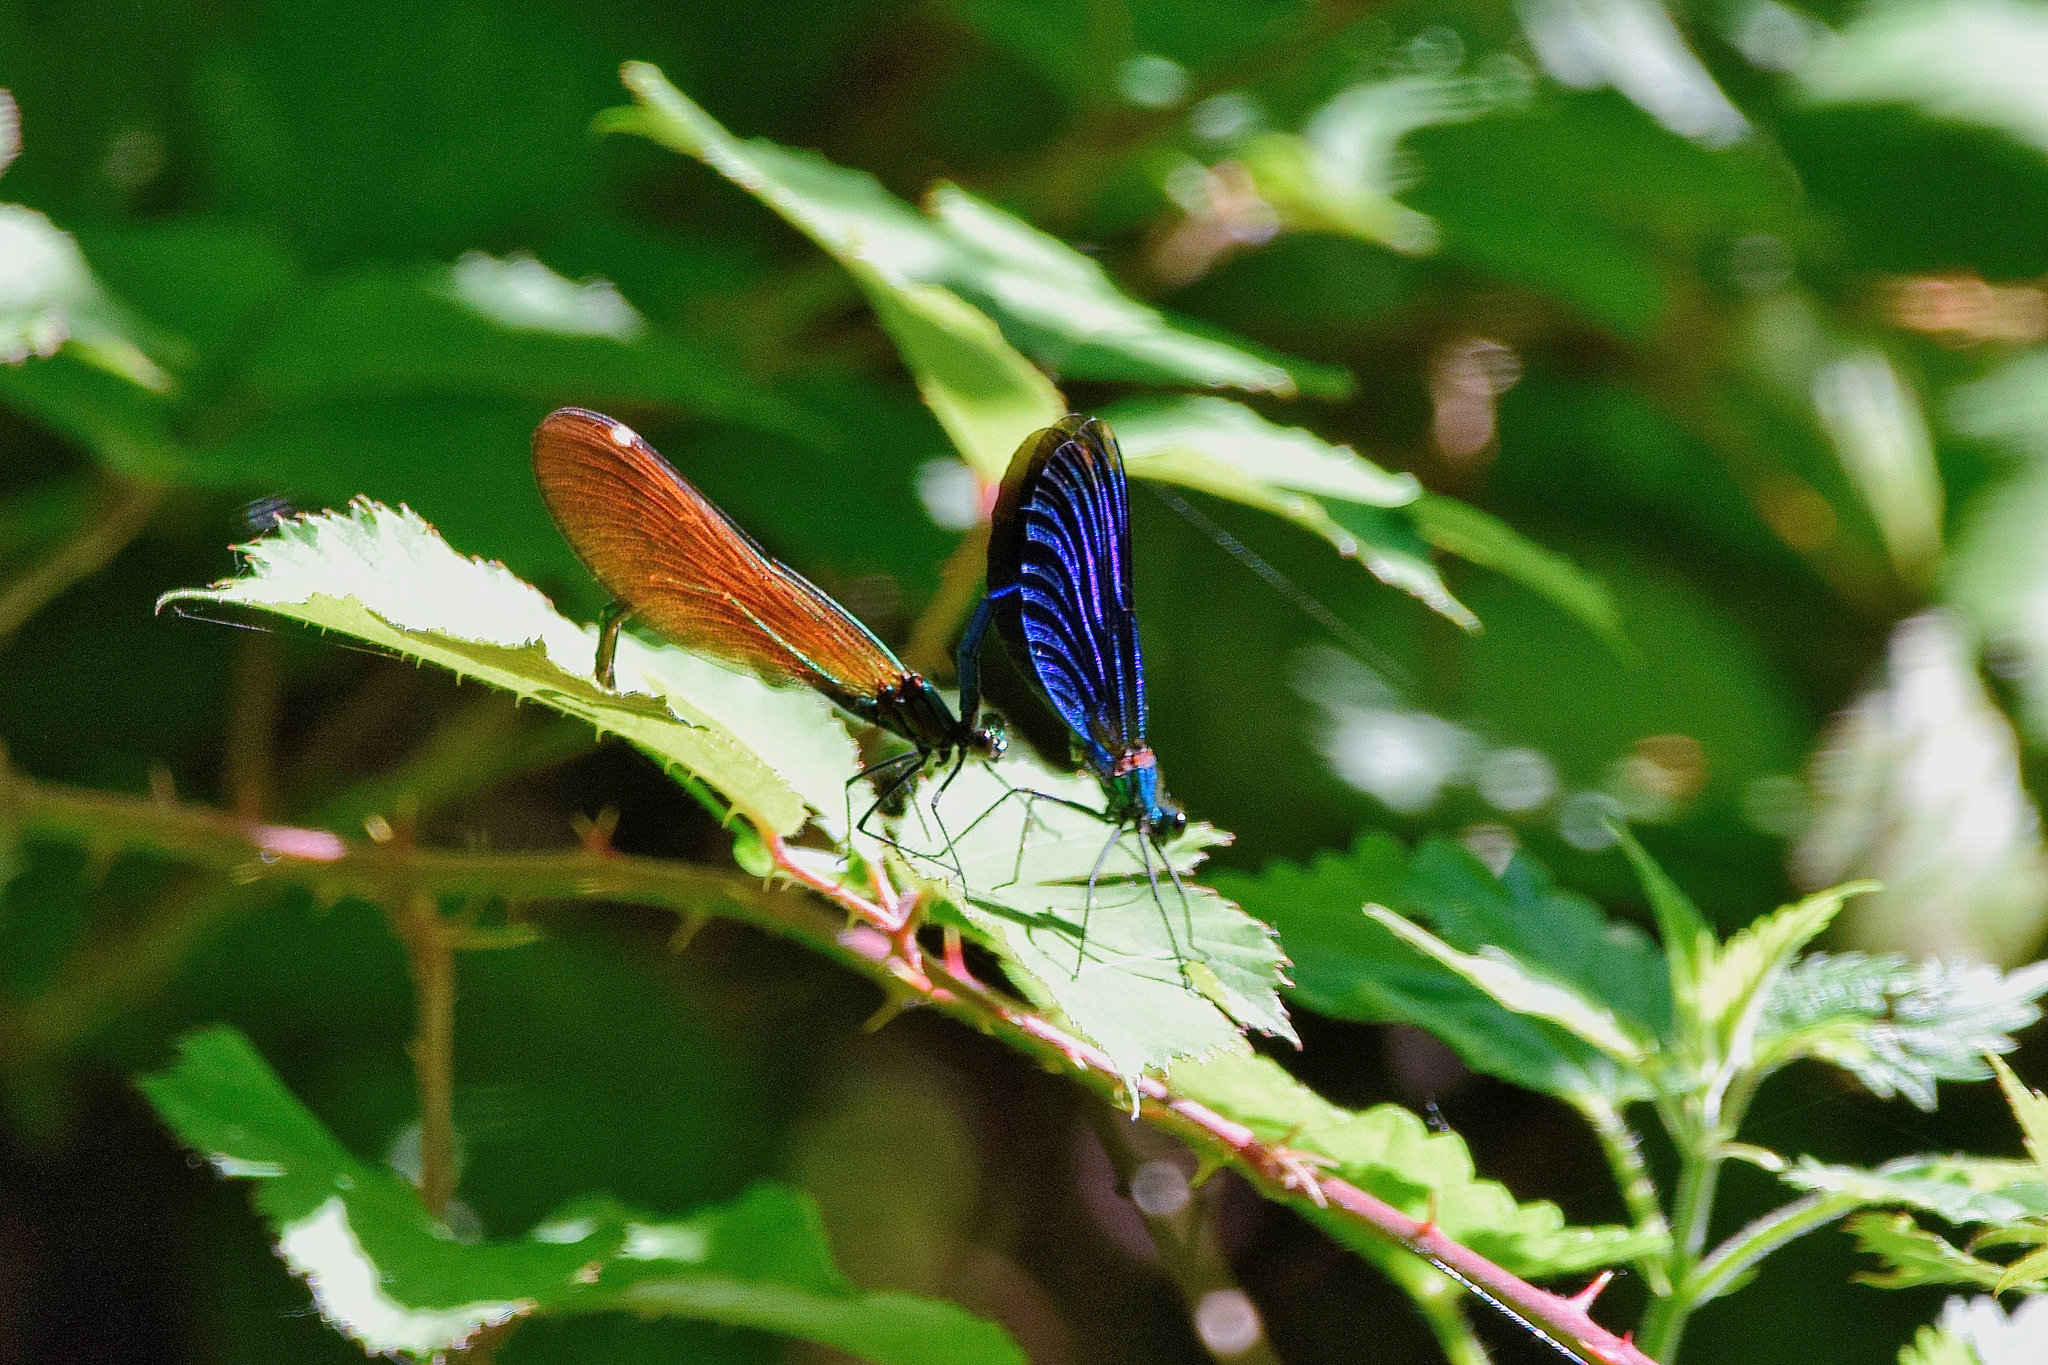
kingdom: Animalia
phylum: Arthropoda
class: Insecta
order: Odonata
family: Calopterygidae
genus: Calopteryx
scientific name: Calopteryx virgo
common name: Beautiful demoiselle
